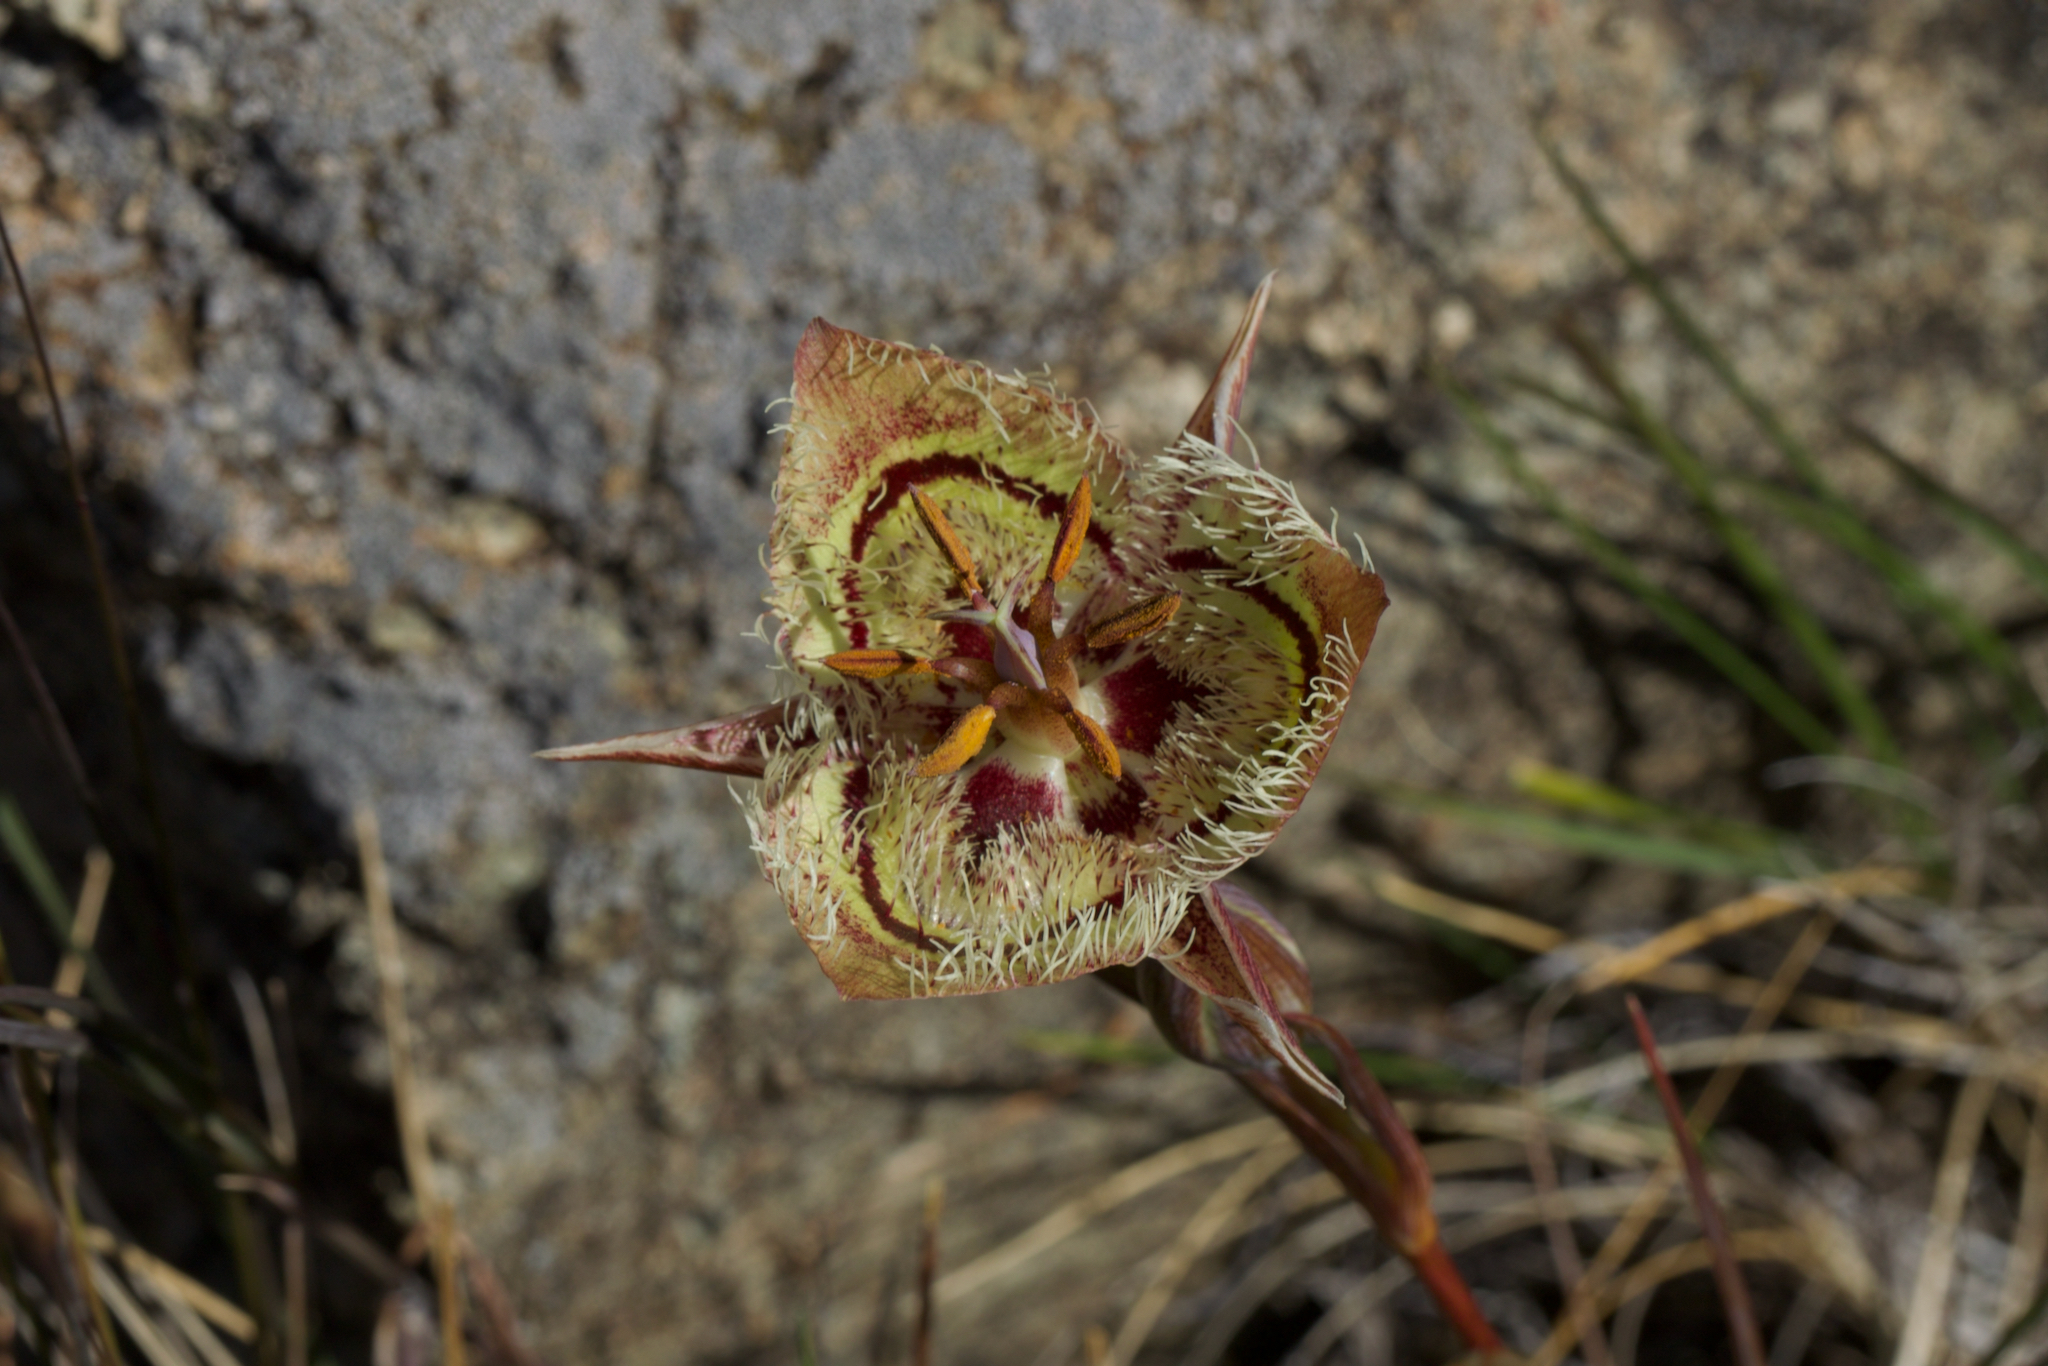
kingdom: Plantae
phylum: Tracheophyta
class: Liliopsida
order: Liliales
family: Liliaceae
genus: Calochortus
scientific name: Calochortus tiburonensis
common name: Tiburon mariposa-lily
